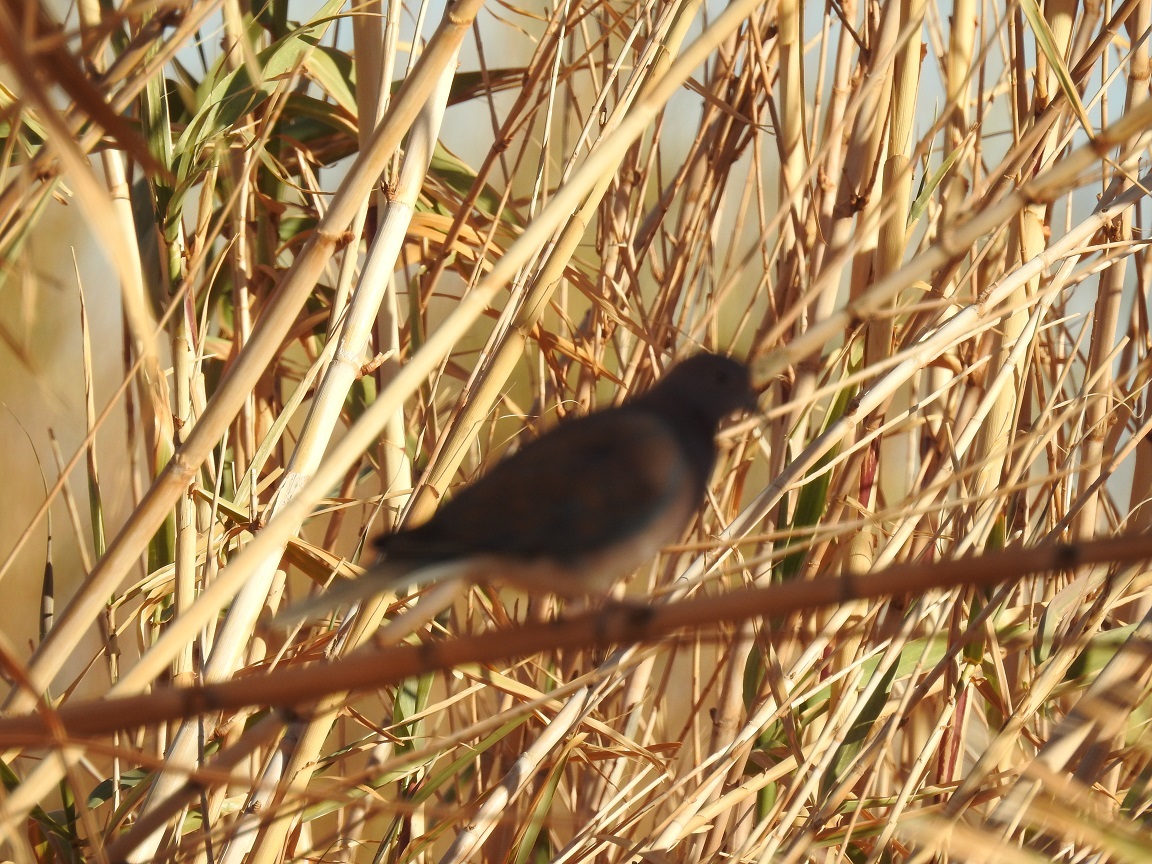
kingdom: Animalia
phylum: Chordata
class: Aves
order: Columbiformes
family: Columbidae
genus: Spilopelia
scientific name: Spilopelia senegalensis
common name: Laughing dove
